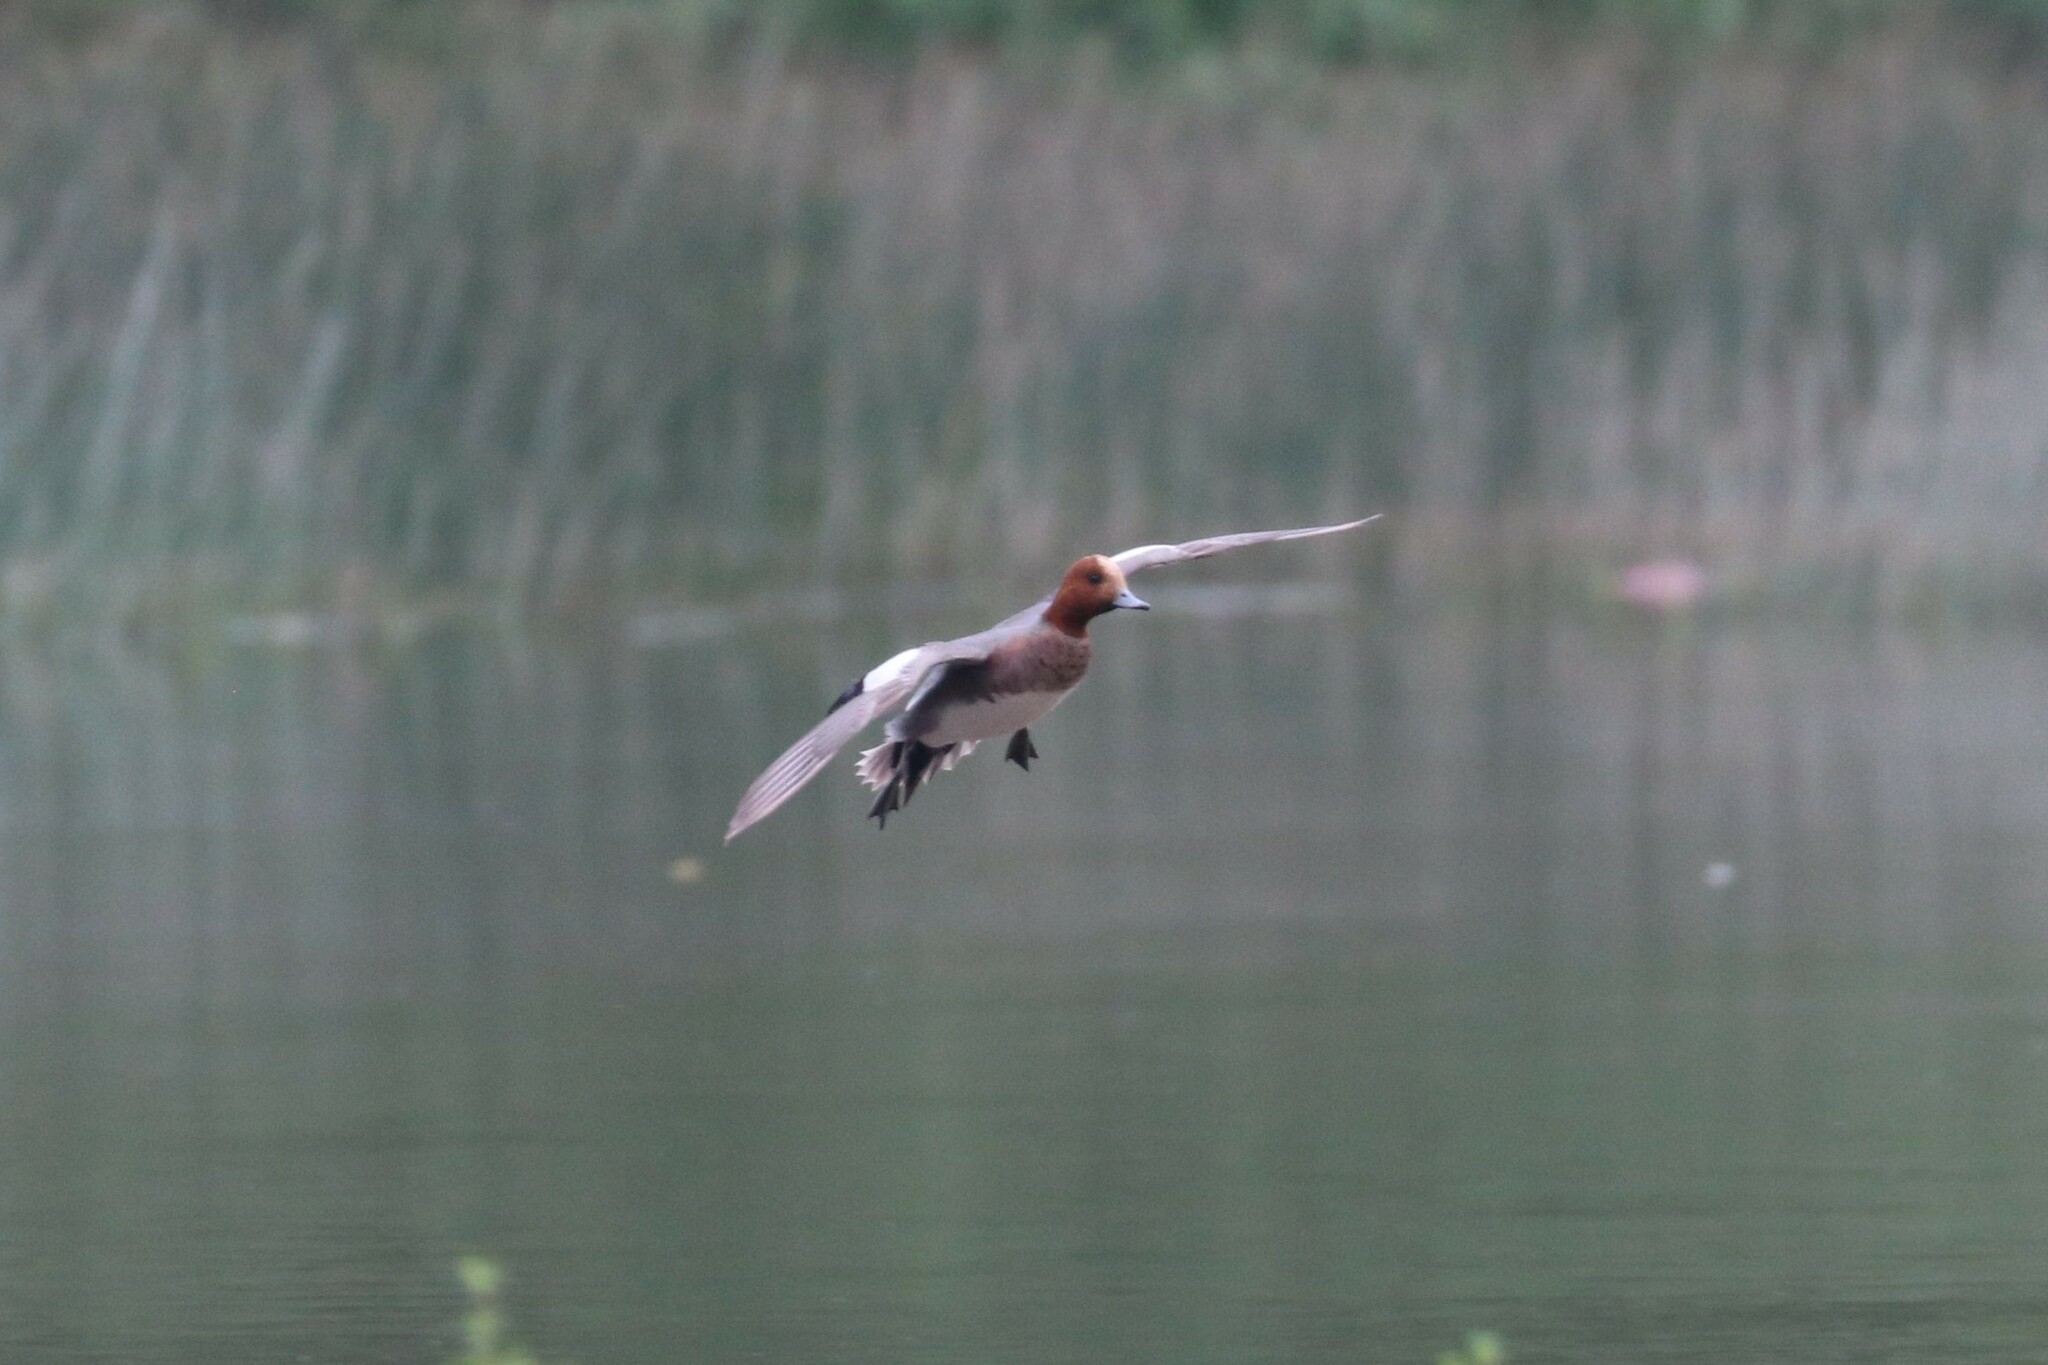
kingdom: Animalia
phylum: Chordata
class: Aves
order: Anseriformes
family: Anatidae
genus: Mareca
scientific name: Mareca penelope
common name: Eurasian wigeon
